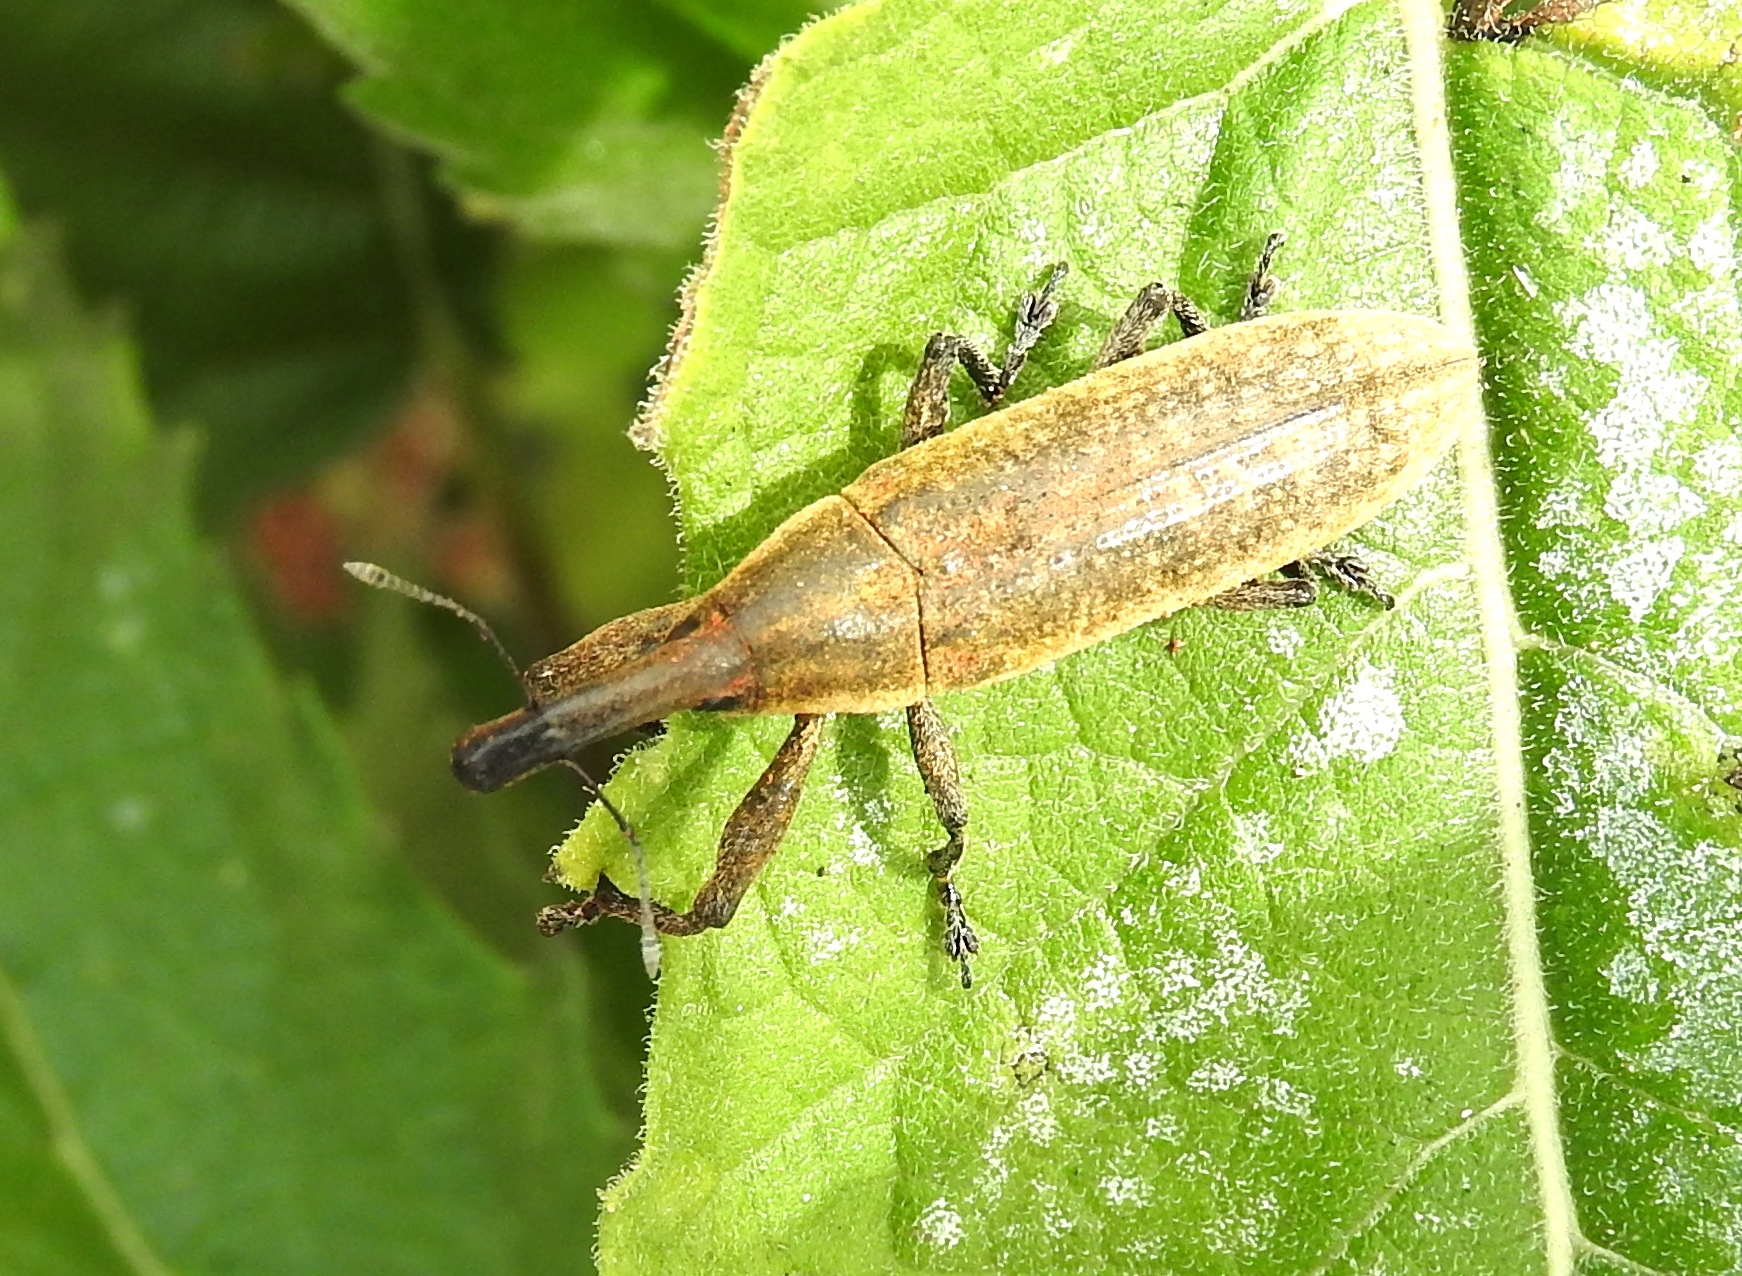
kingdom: Animalia
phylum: Arthropoda
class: Insecta
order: Coleoptera
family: Curculionidae
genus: Lixus
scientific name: Lixus
